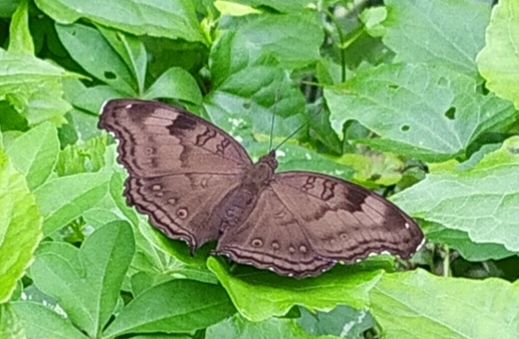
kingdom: Animalia
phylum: Arthropoda
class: Insecta
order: Lepidoptera
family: Nymphalidae
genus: Junonia
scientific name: Junonia iphita
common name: Chocolate pansy
